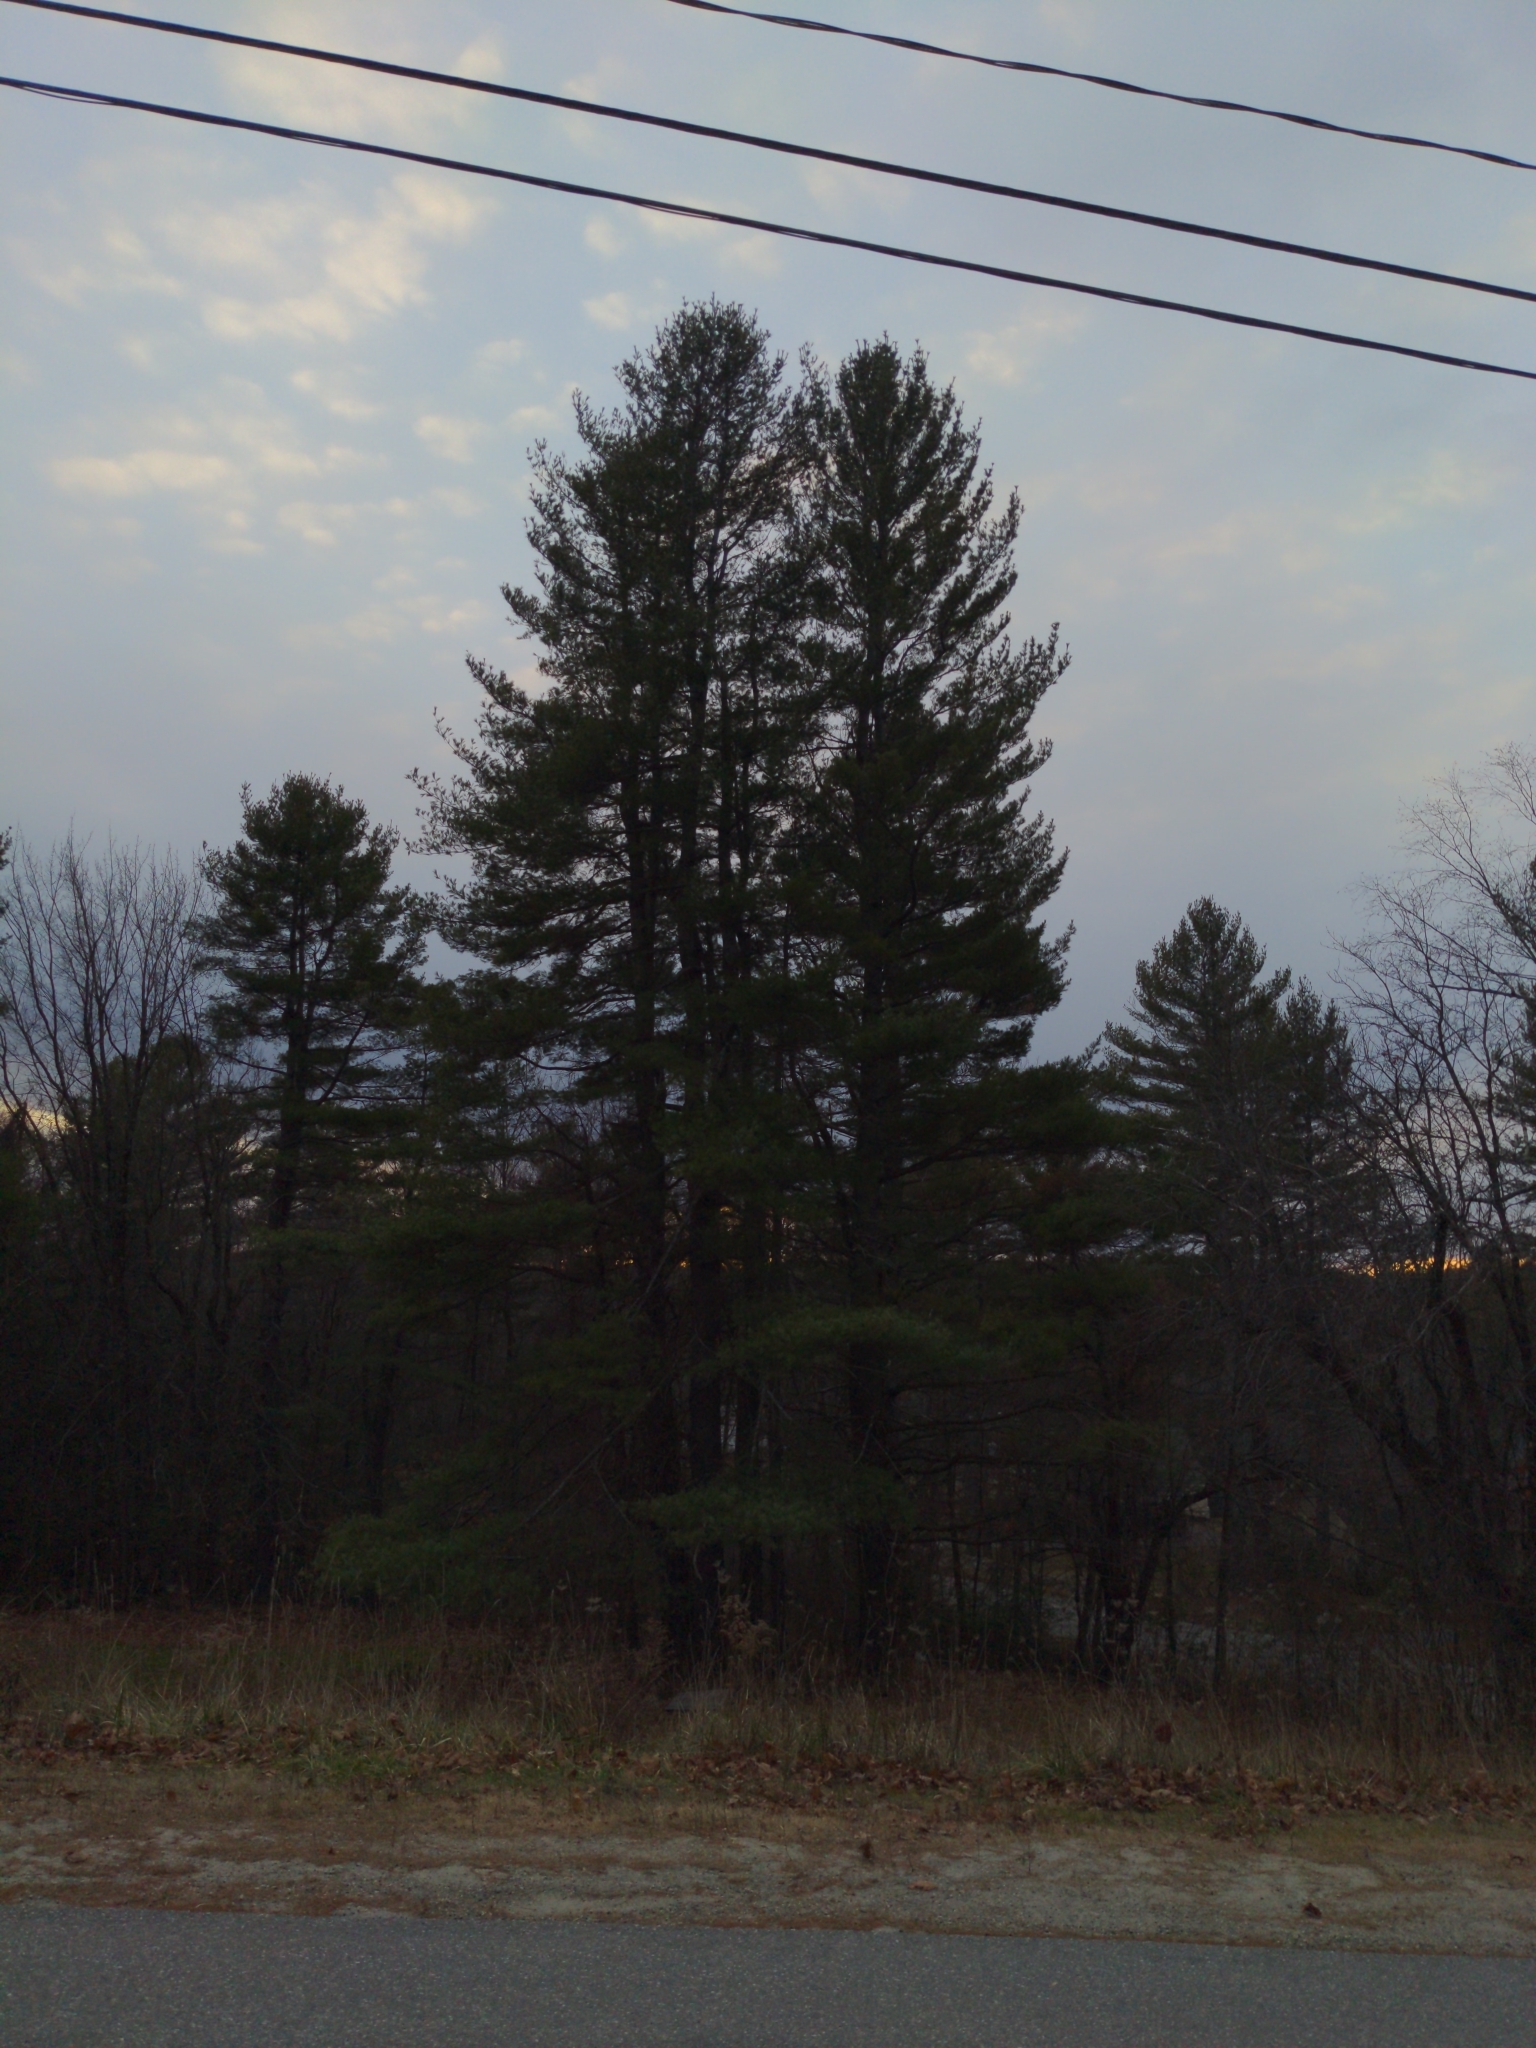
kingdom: Plantae
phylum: Tracheophyta
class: Pinopsida
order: Pinales
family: Pinaceae
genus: Pinus
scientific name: Pinus strobus
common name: Weymouth pine
